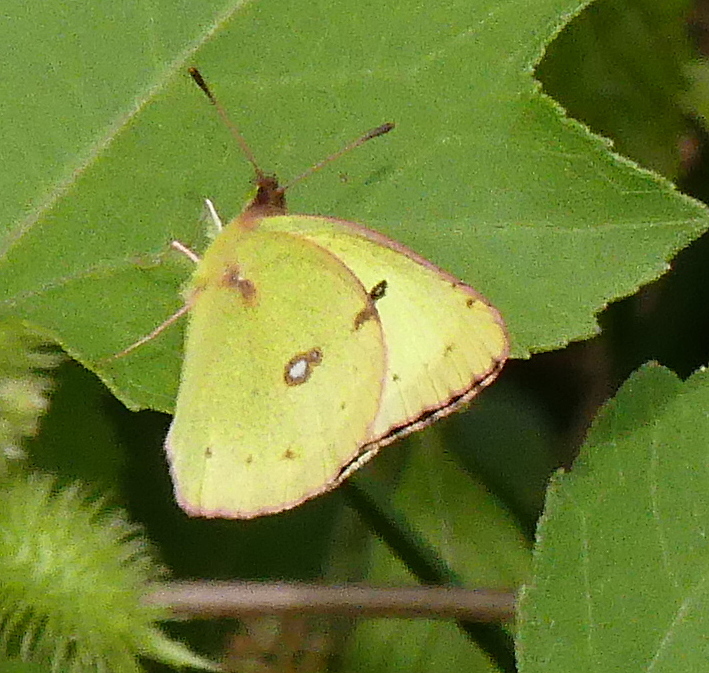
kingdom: Animalia
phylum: Arthropoda
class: Insecta
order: Lepidoptera
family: Pieridae
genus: Colias
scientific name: Colias philodice
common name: Clouded sulphur
